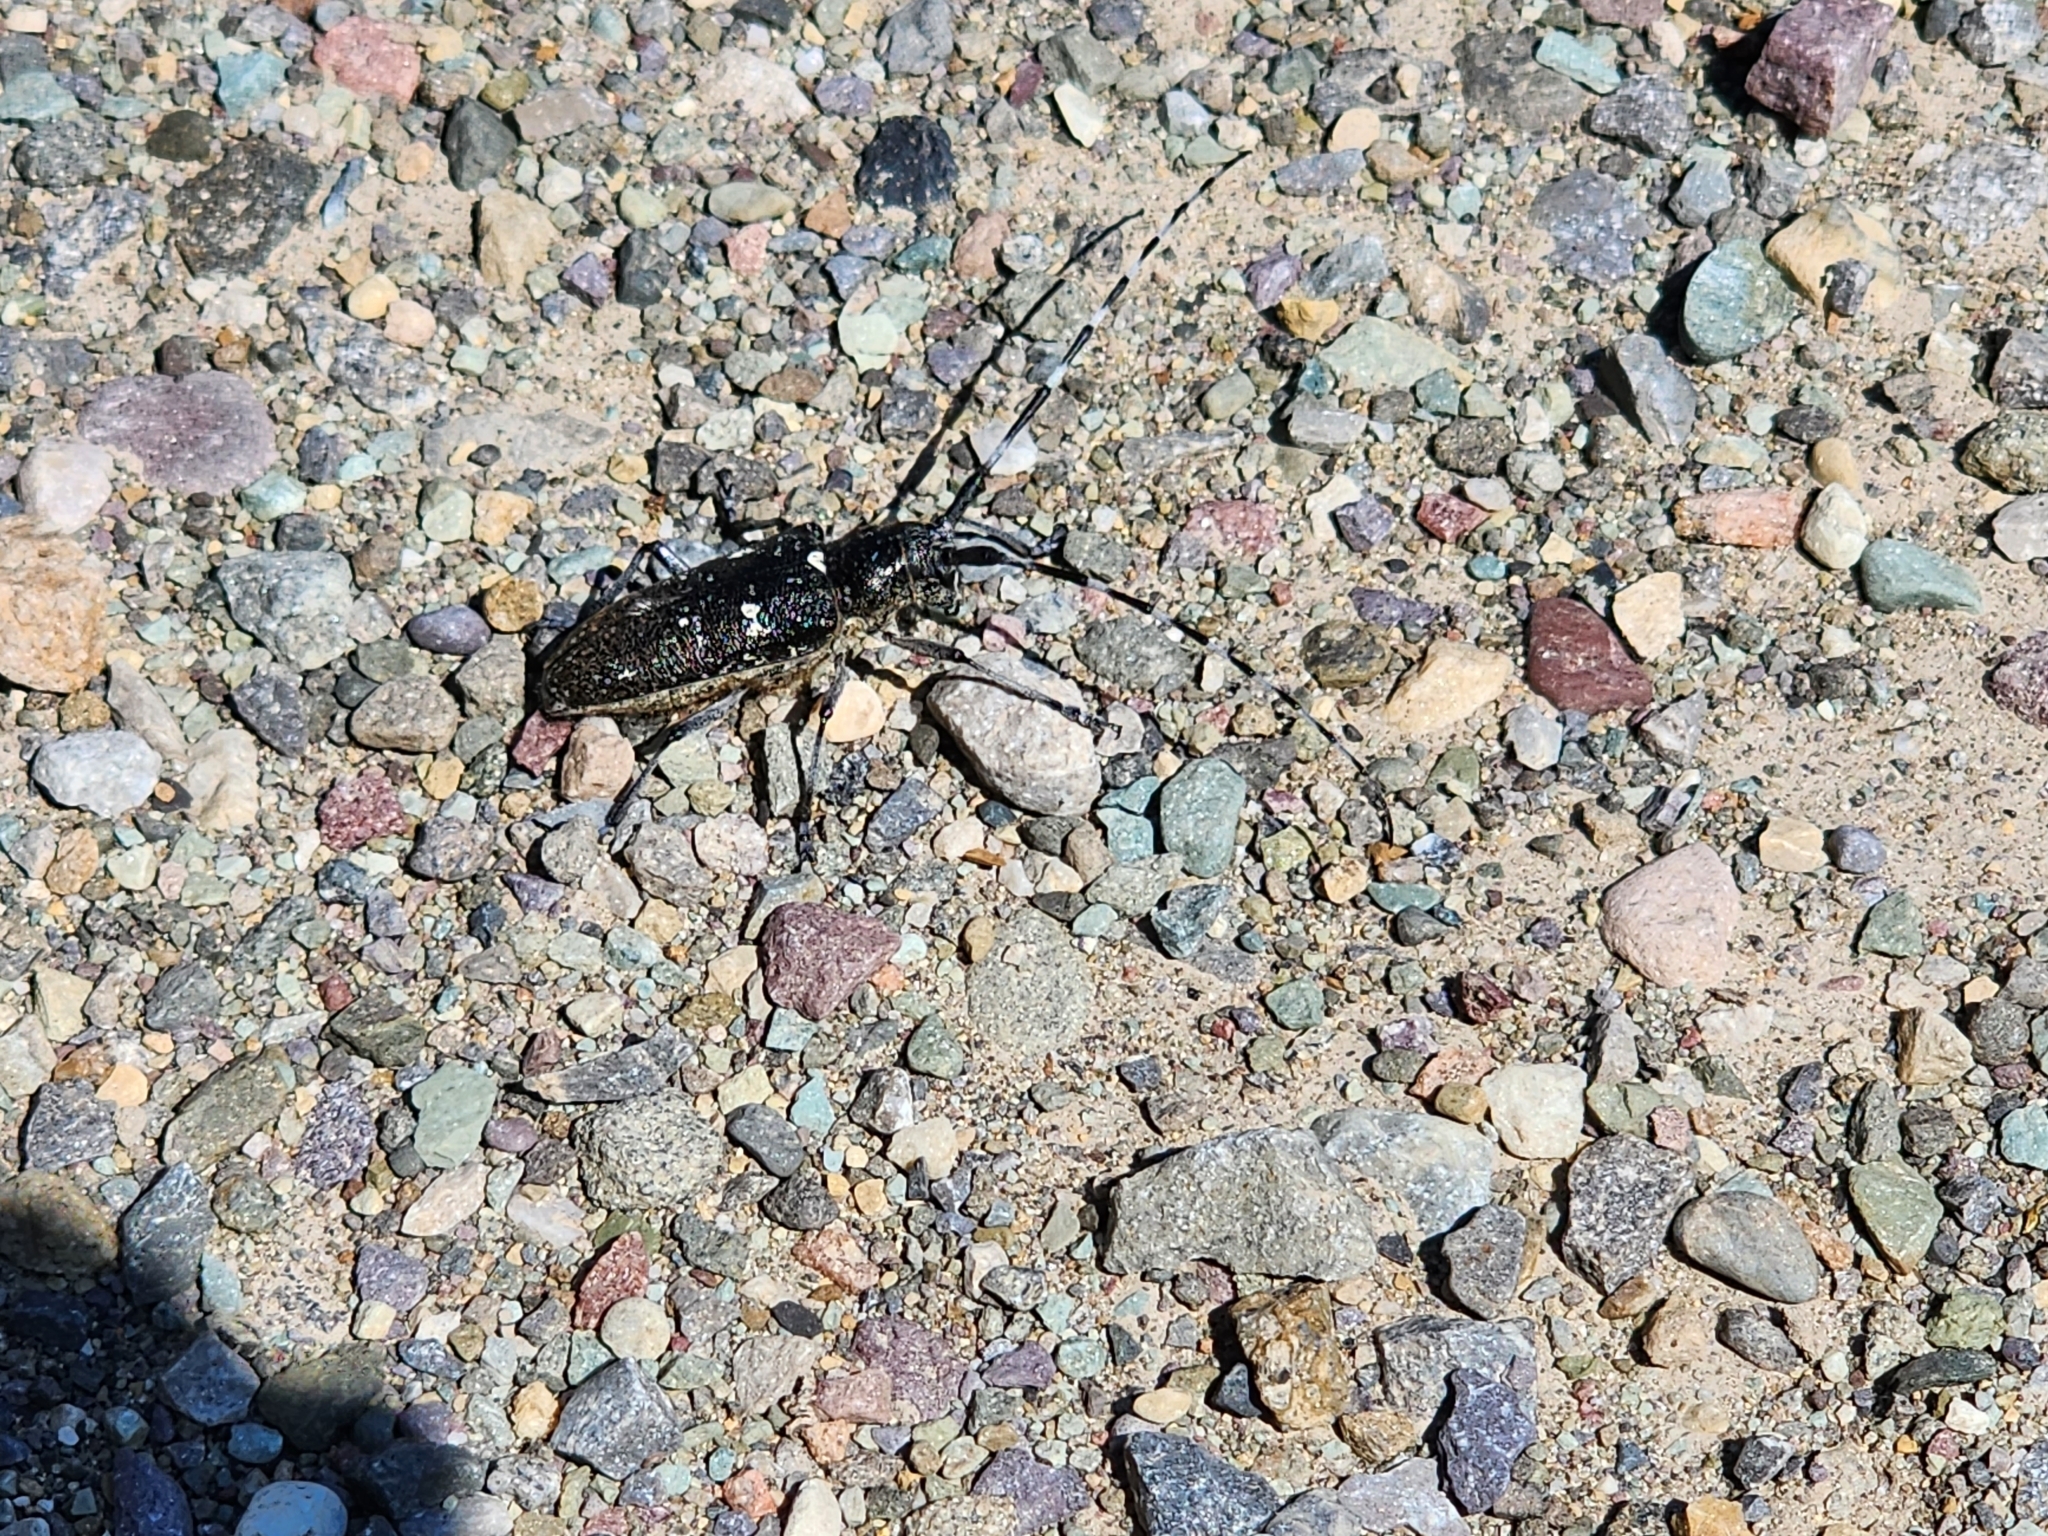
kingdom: Animalia
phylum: Arthropoda
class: Insecta
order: Coleoptera
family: Cerambycidae
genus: Monochamus
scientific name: Monochamus scutellatus
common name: White-spotted sawyer beetle
